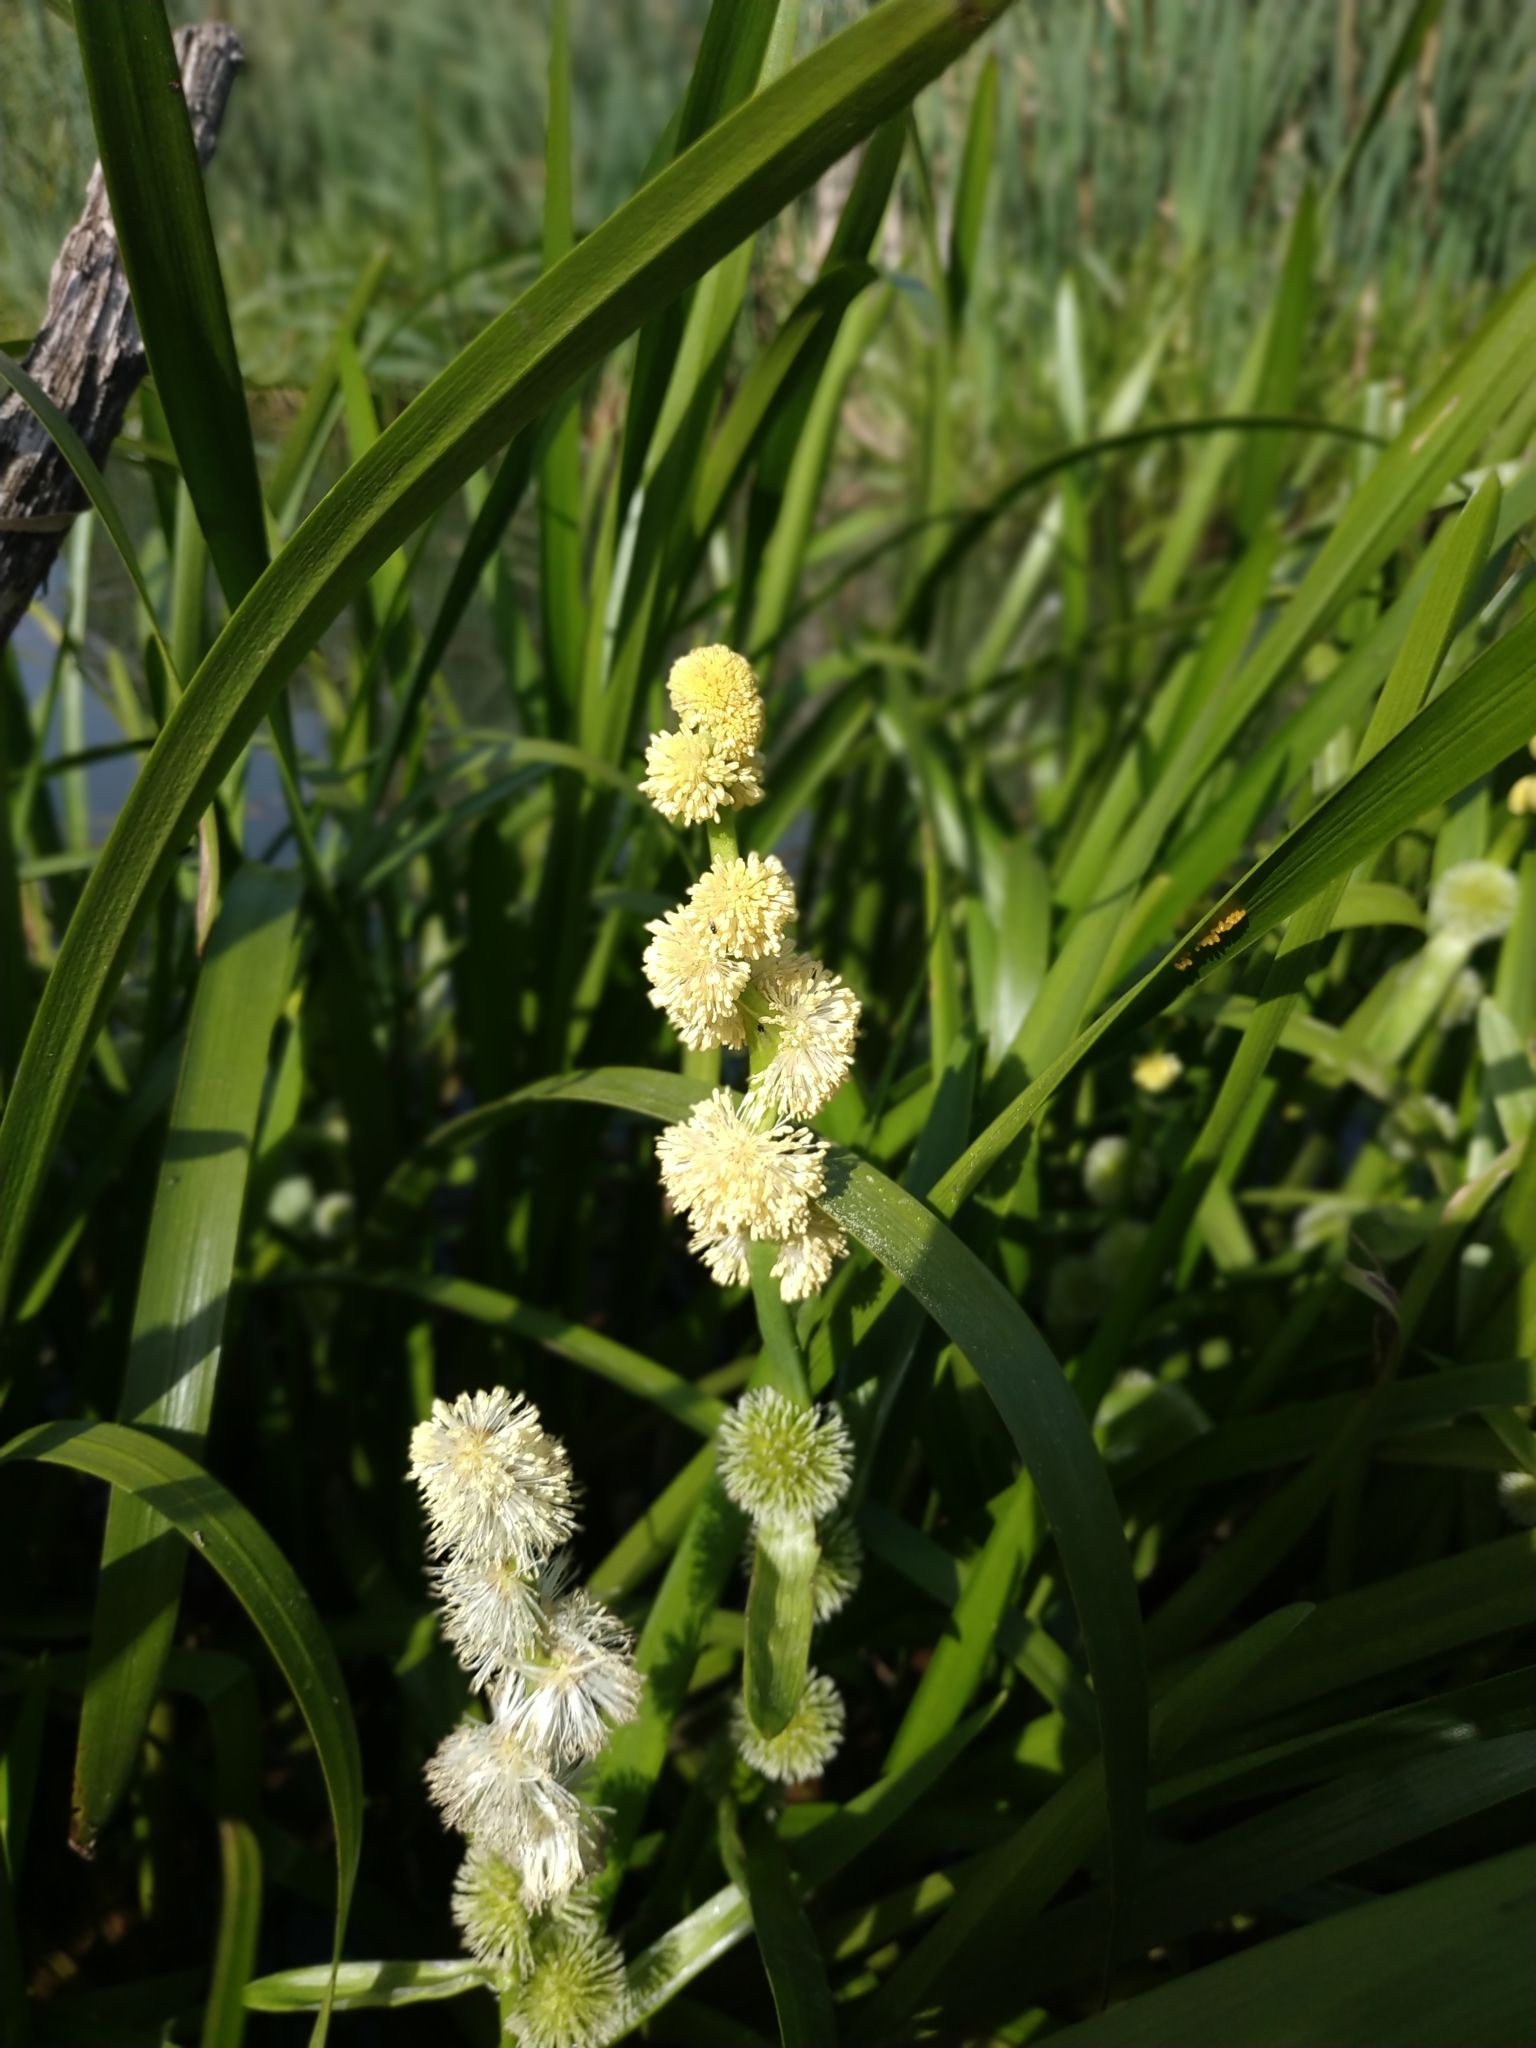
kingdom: Plantae
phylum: Tracheophyta
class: Liliopsida
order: Poales
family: Typhaceae
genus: Sparganium
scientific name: Sparganium emersum
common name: Unbranched bur-reed
